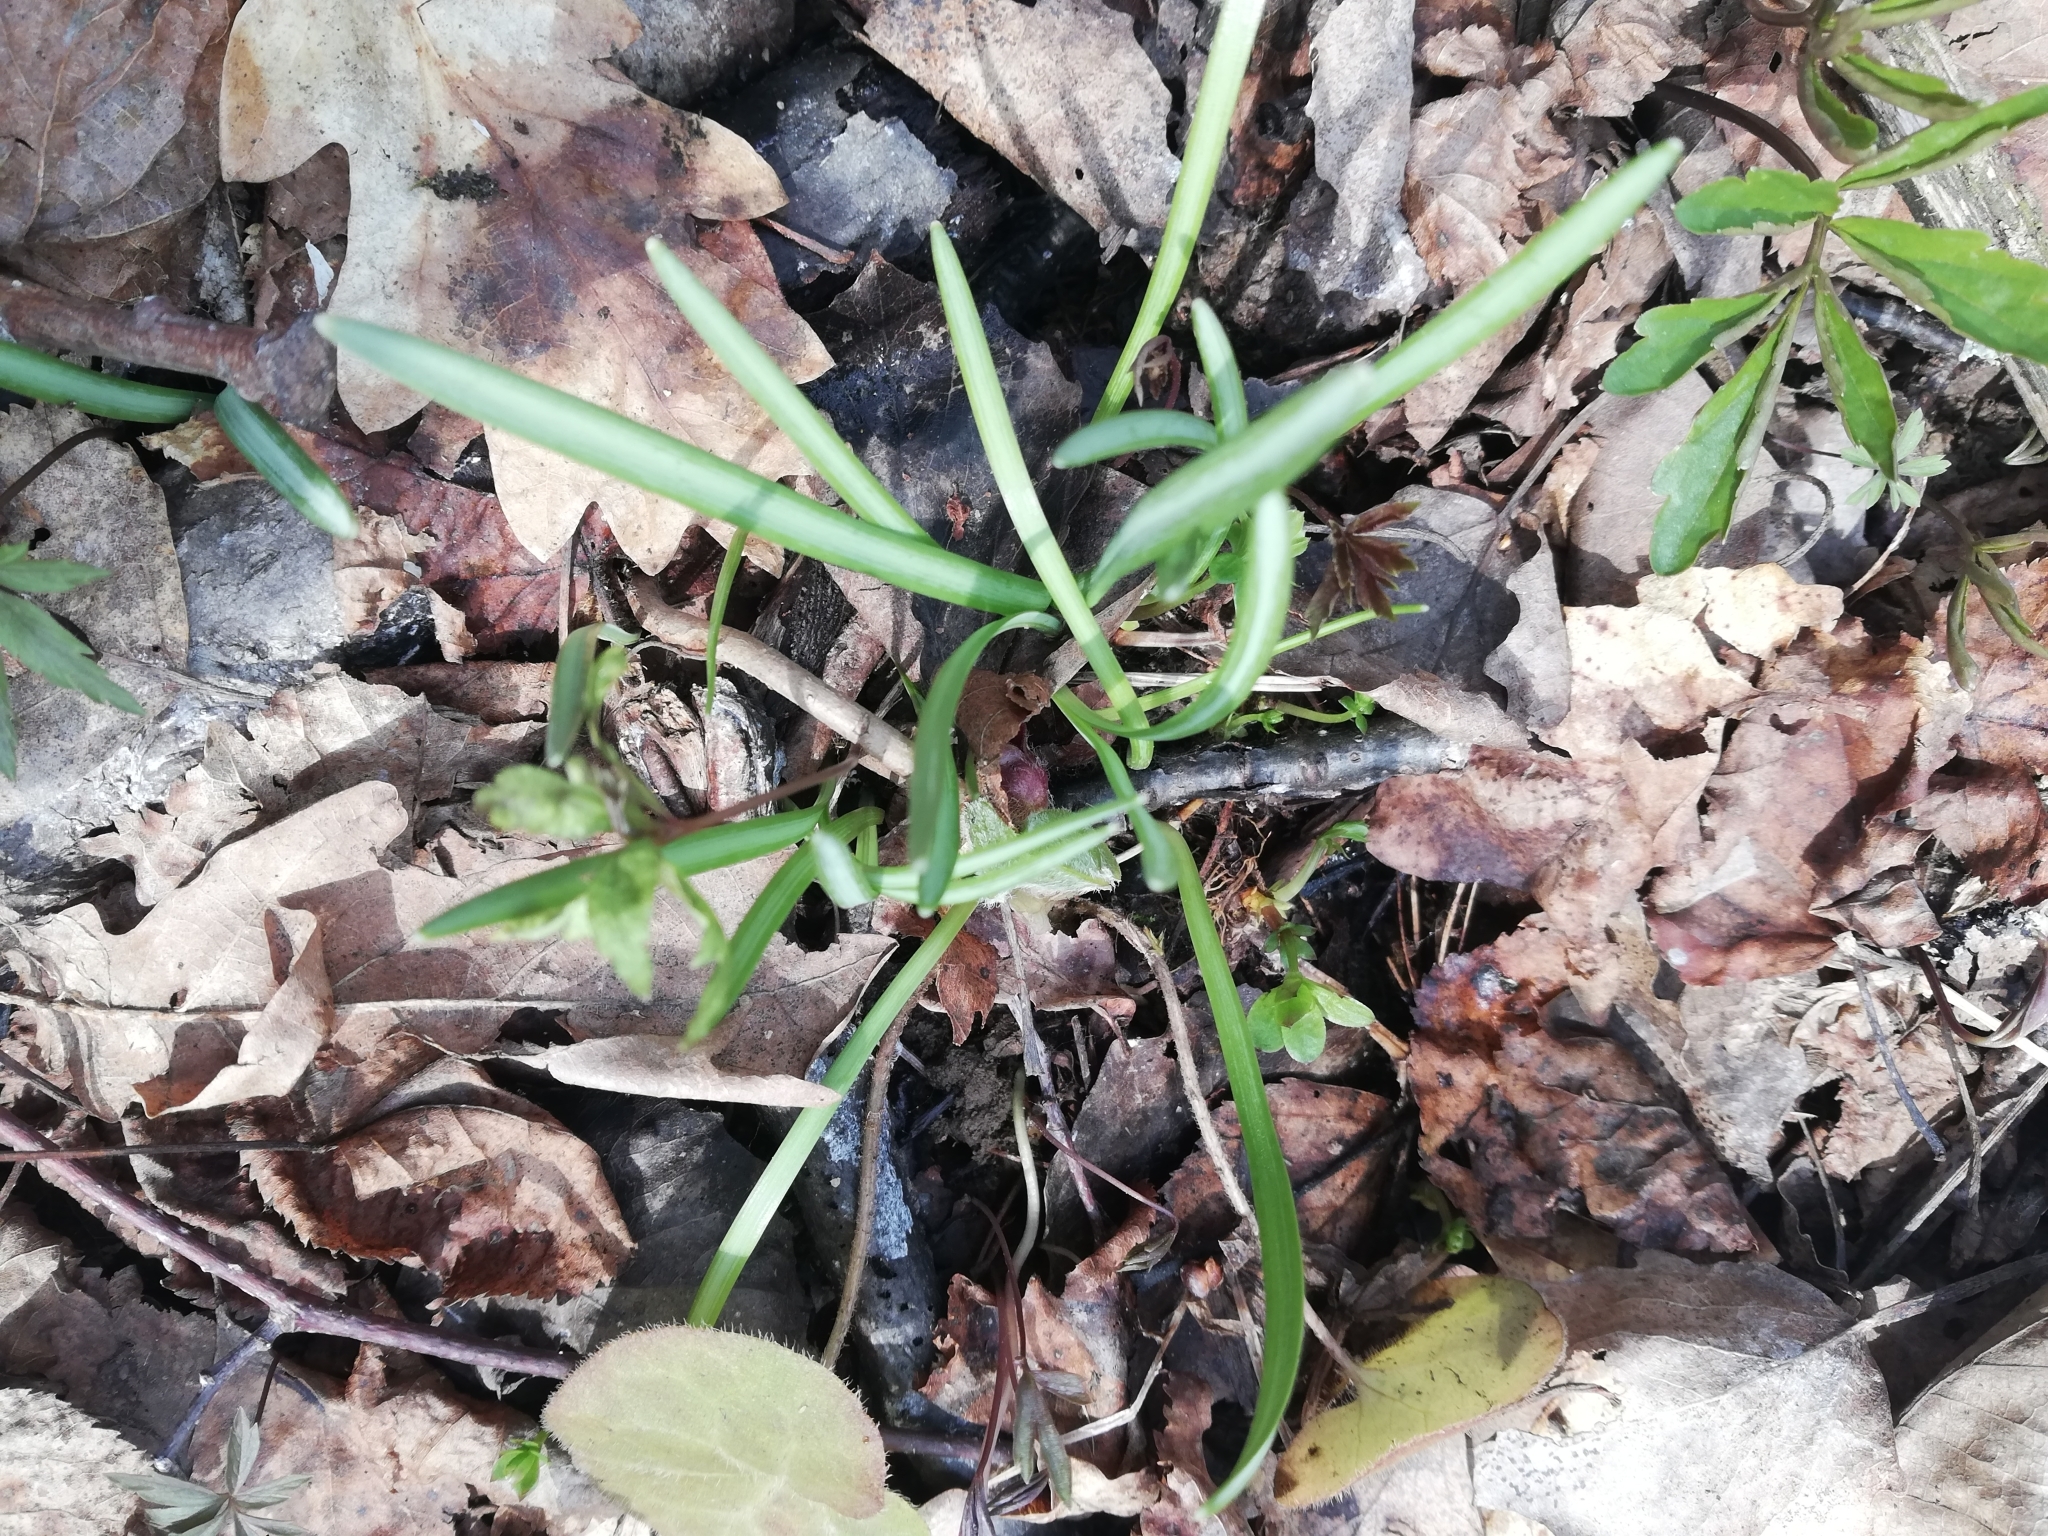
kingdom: Plantae
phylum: Tracheophyta
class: Liliopsida
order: Asparagales
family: Amaryllidaceae
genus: Galanthus
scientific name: Galanthus nivalis
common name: Snowdrop
